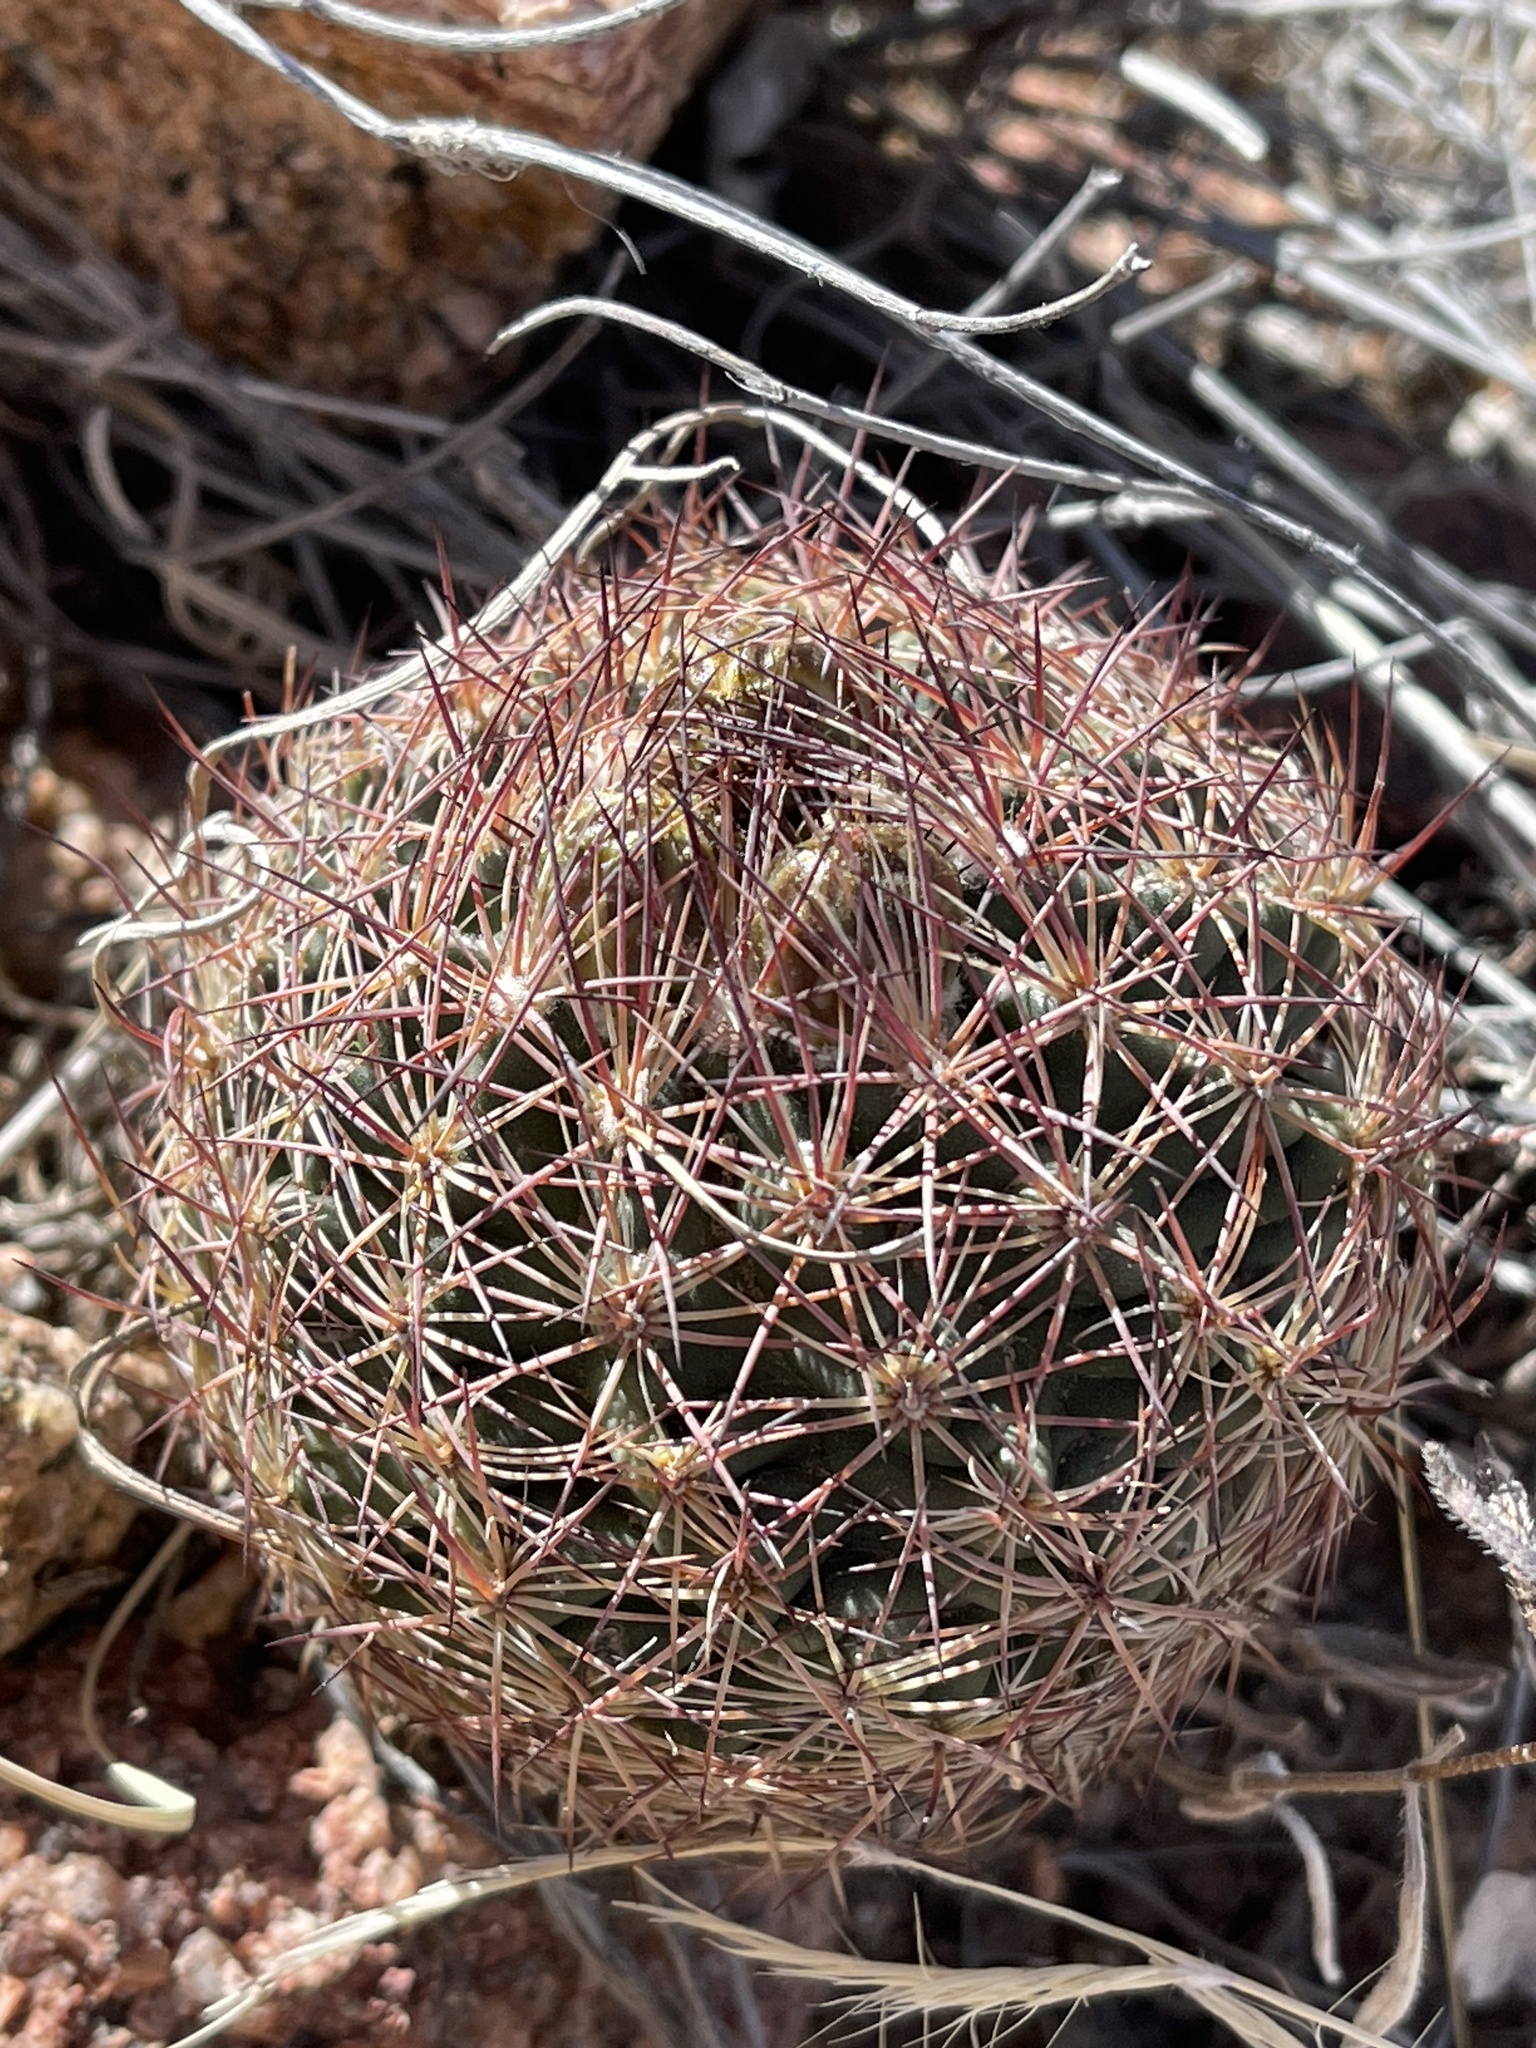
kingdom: Plantae
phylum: Tracheophyta
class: Magnoliopsida
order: Caryophyllales
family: Cactaceae
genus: Sclerocactus
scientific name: Sclerocactus intertextus
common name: White fish-hook cactus
